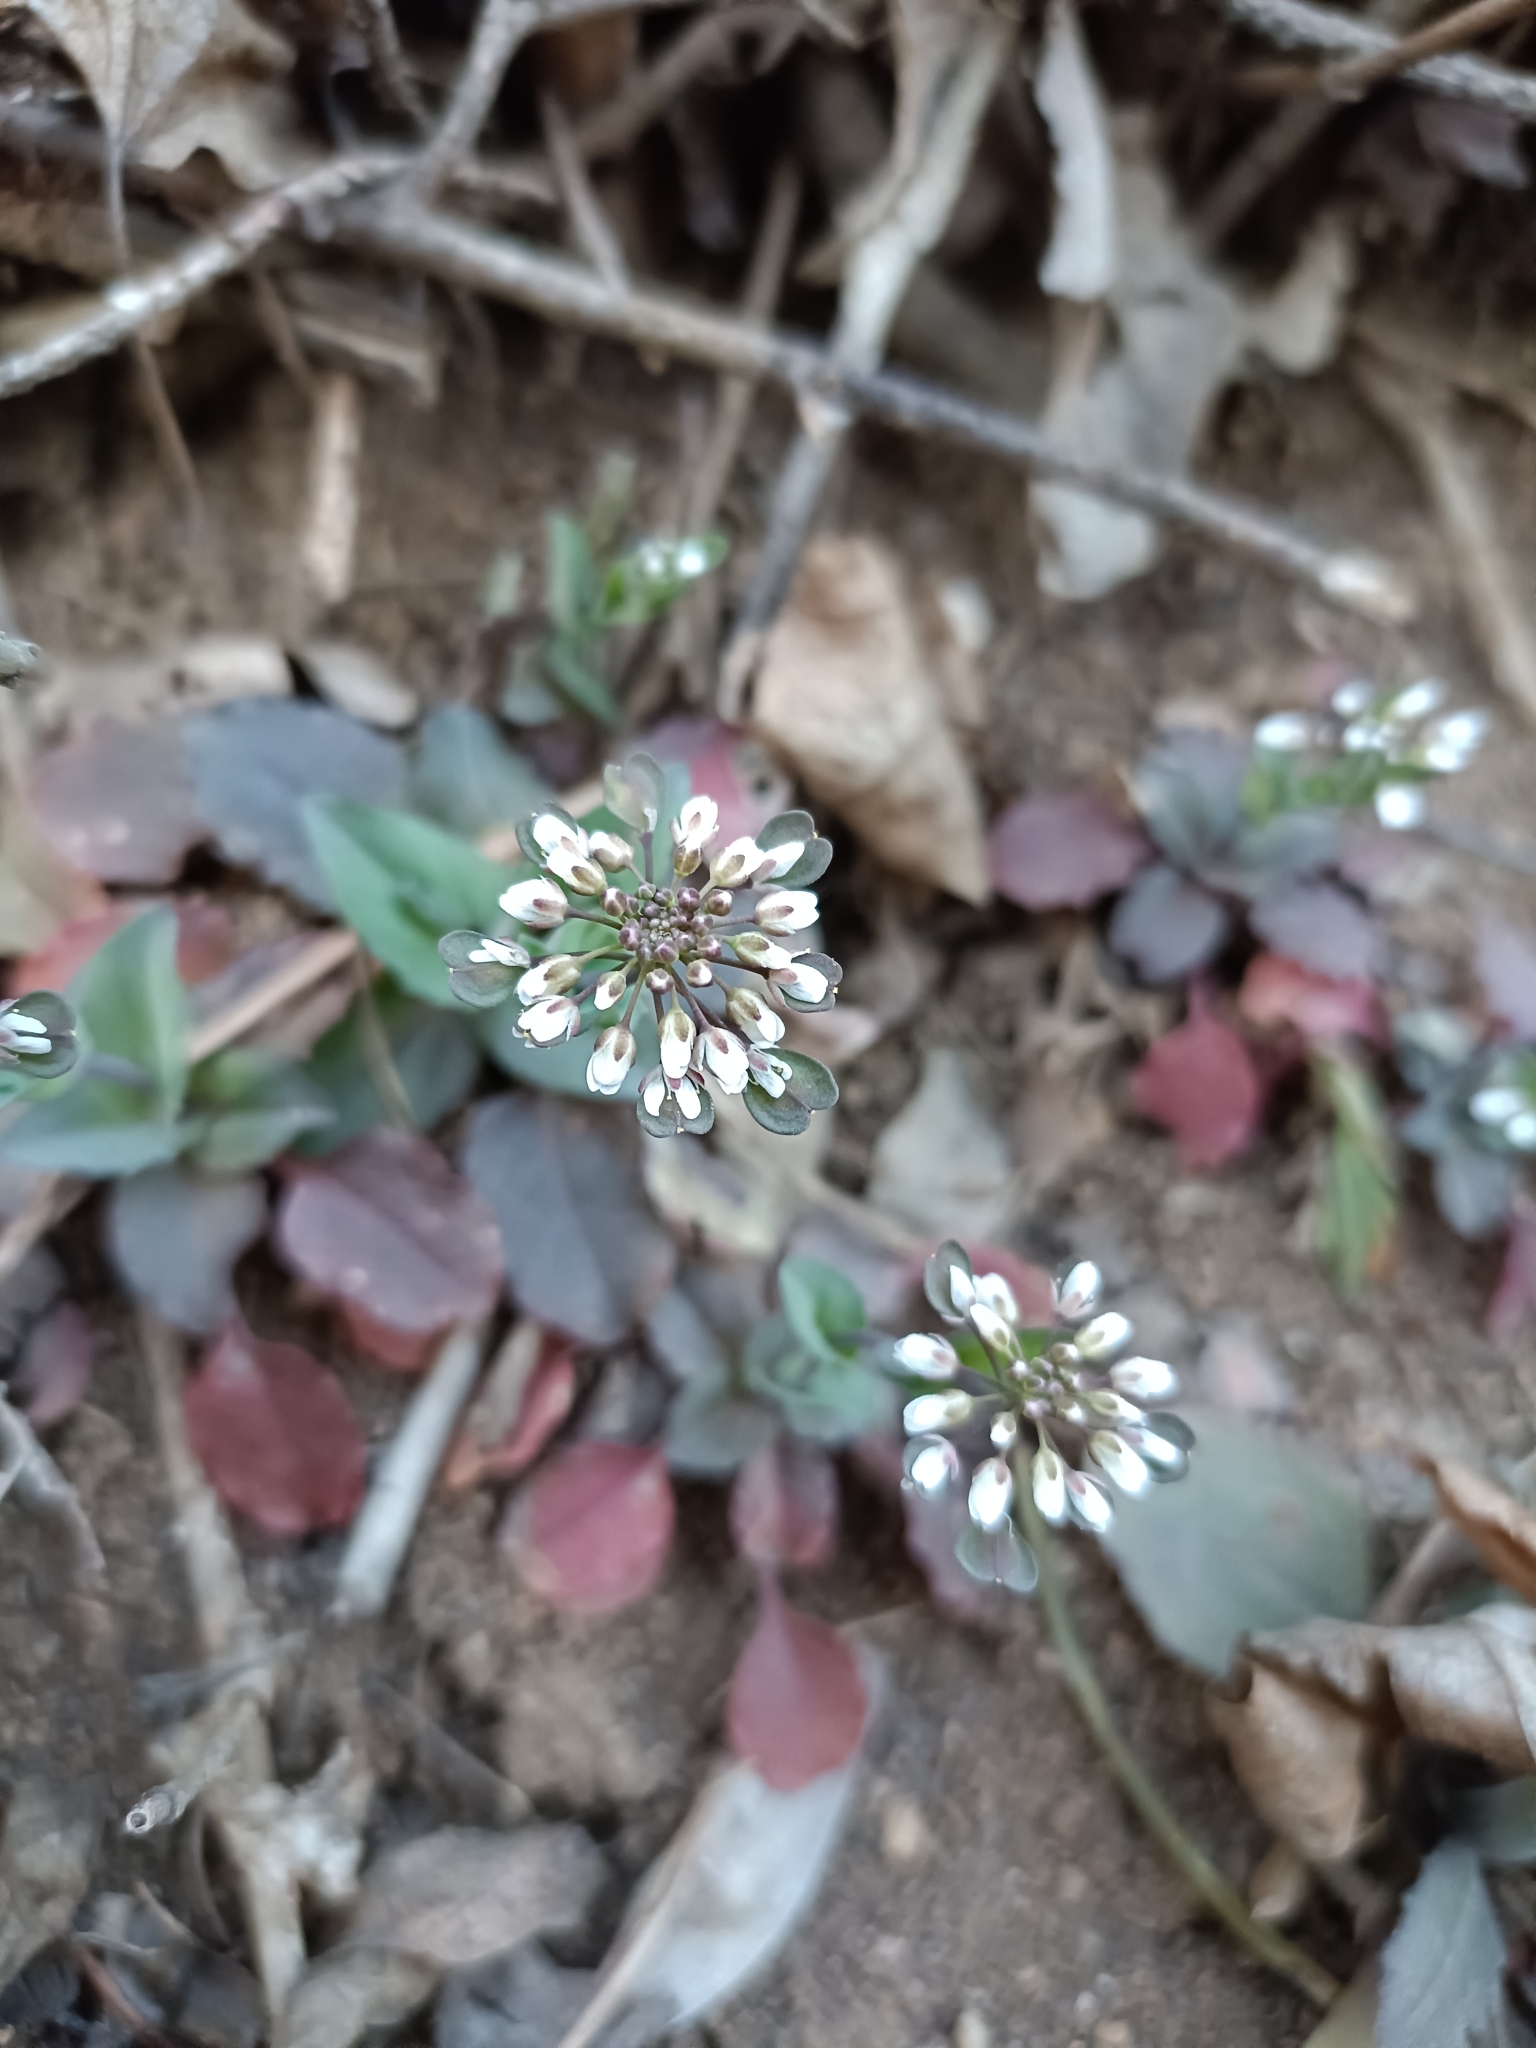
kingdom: Plantae
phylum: Tracheophyta
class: Magnoliopsida
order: Brassicales
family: Brassicaceae
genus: Noccaea
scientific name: Noccaea perfoliata
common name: Perfoliate pennycress
